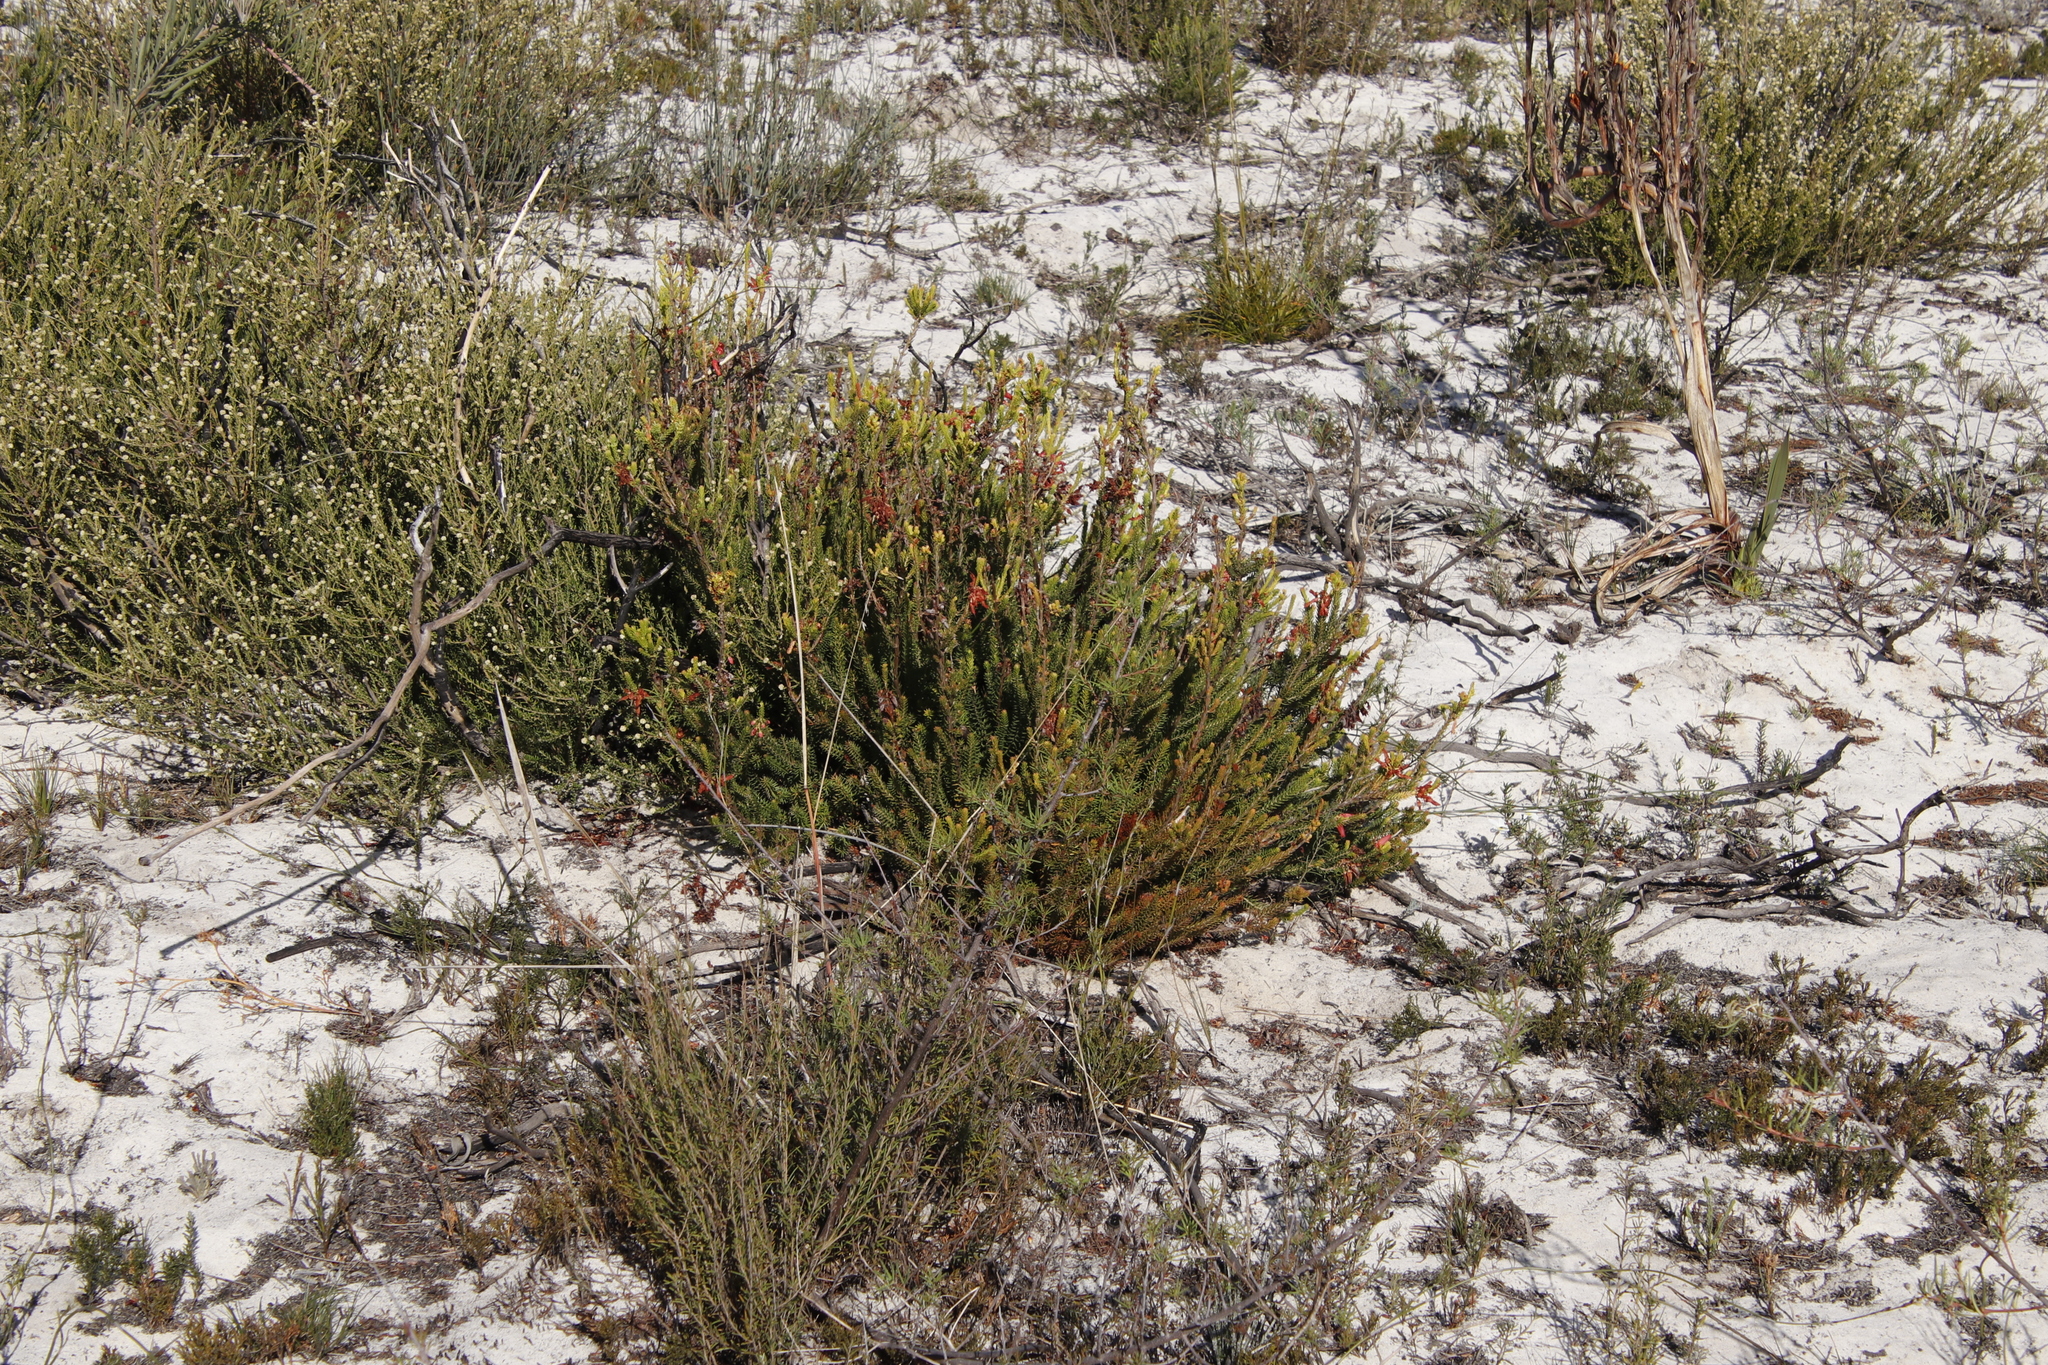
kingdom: Plantae
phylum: Tracheophyta
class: Magnoliopsida
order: Ericales
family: Ericaceae
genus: Erica
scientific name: Erica mammosa
